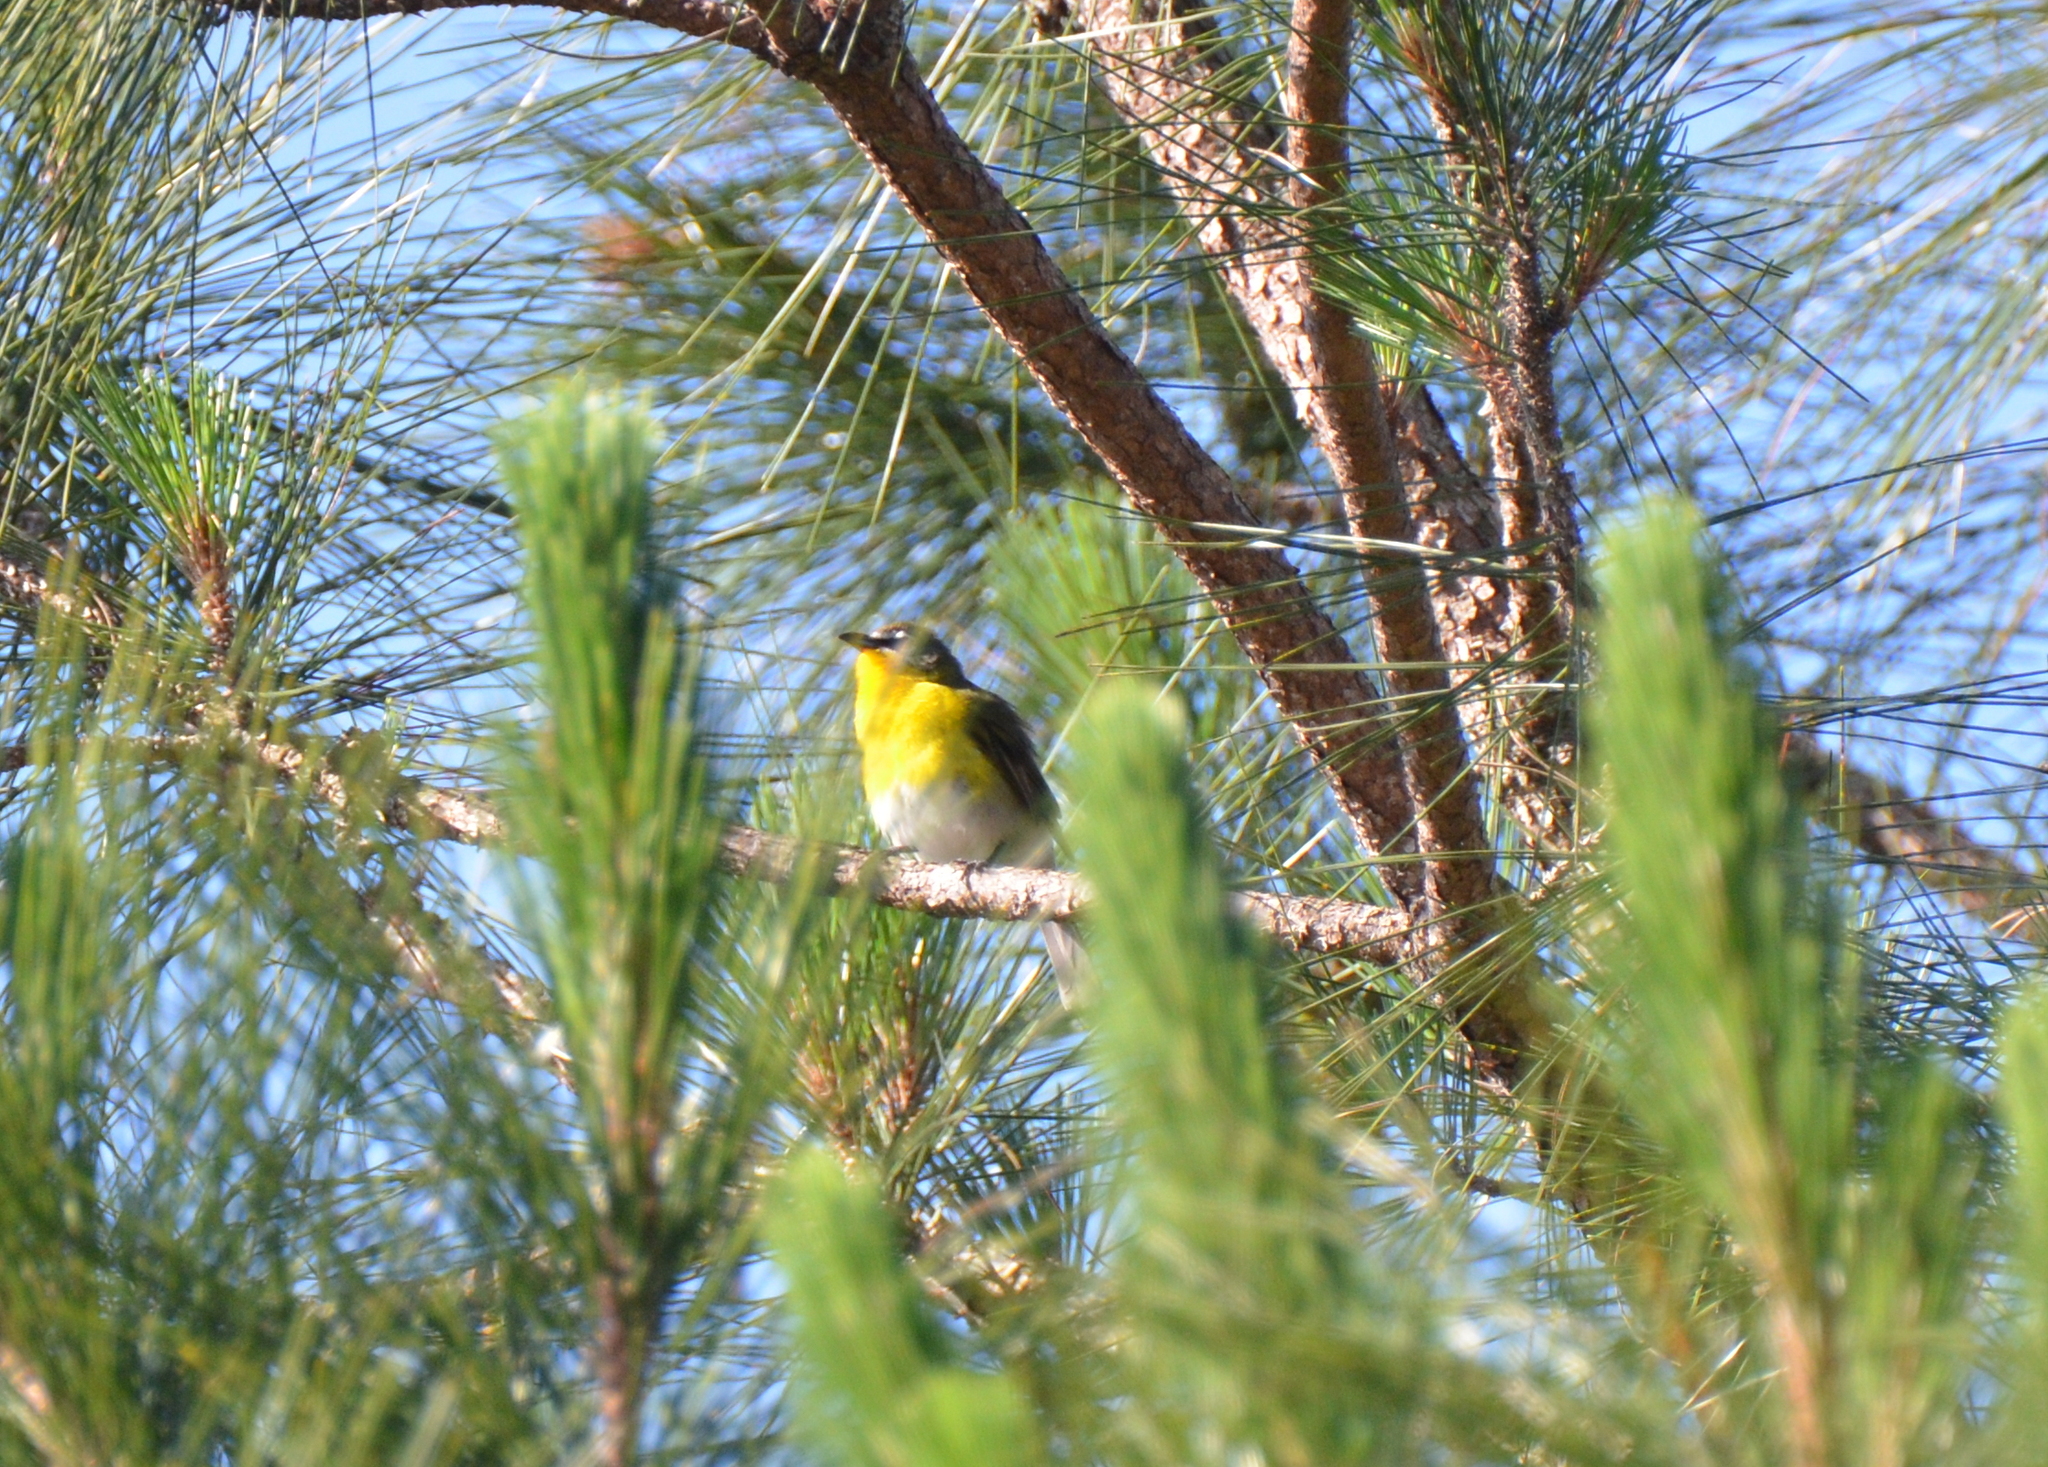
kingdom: Animalia
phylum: Chordata
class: Aves
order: Passeriformes
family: Parulidae
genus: Icteria
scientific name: Icteria virens
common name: Yellow-breasted chat
